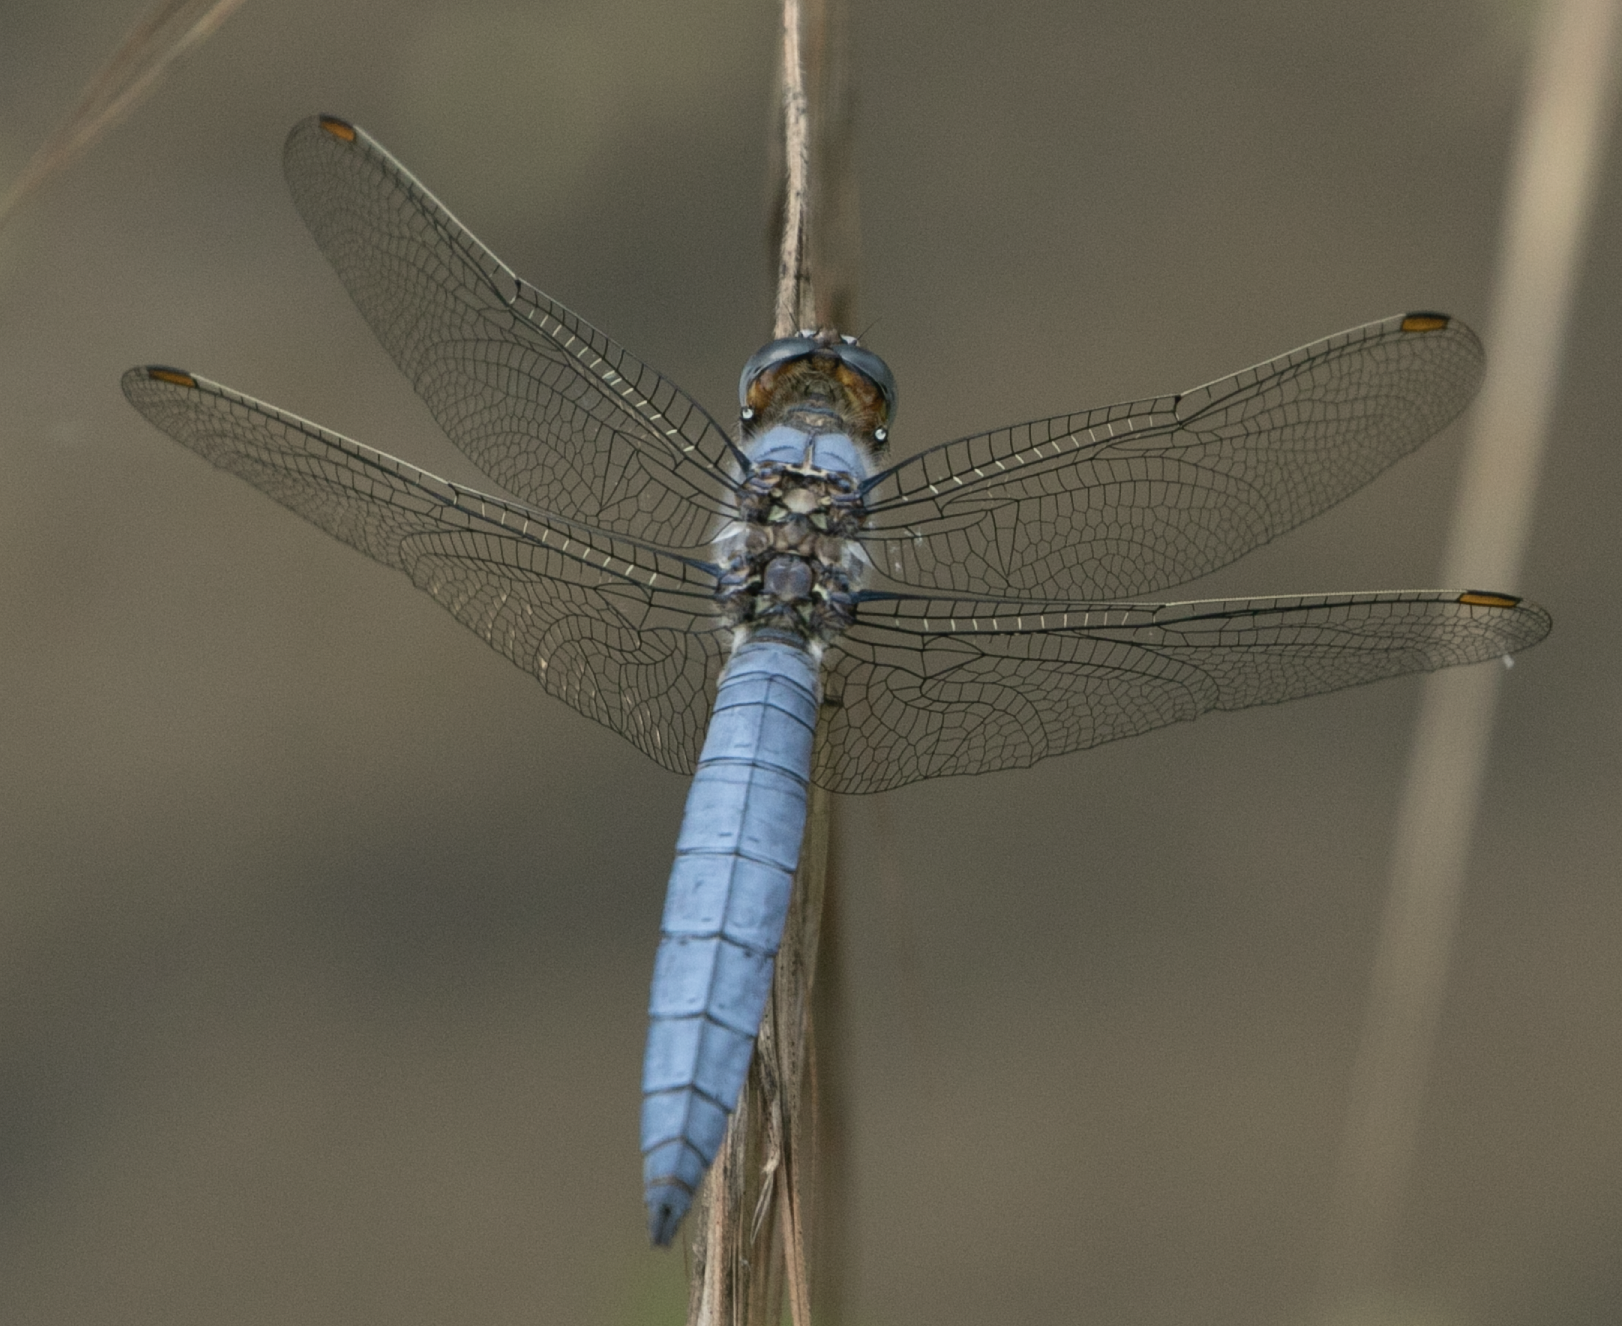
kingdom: Animalia
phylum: Arthropoda
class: Insecta
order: Odonata
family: Libellulidae
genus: Orthetrum
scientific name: Orthetrum brunneum
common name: Southern skimmer
